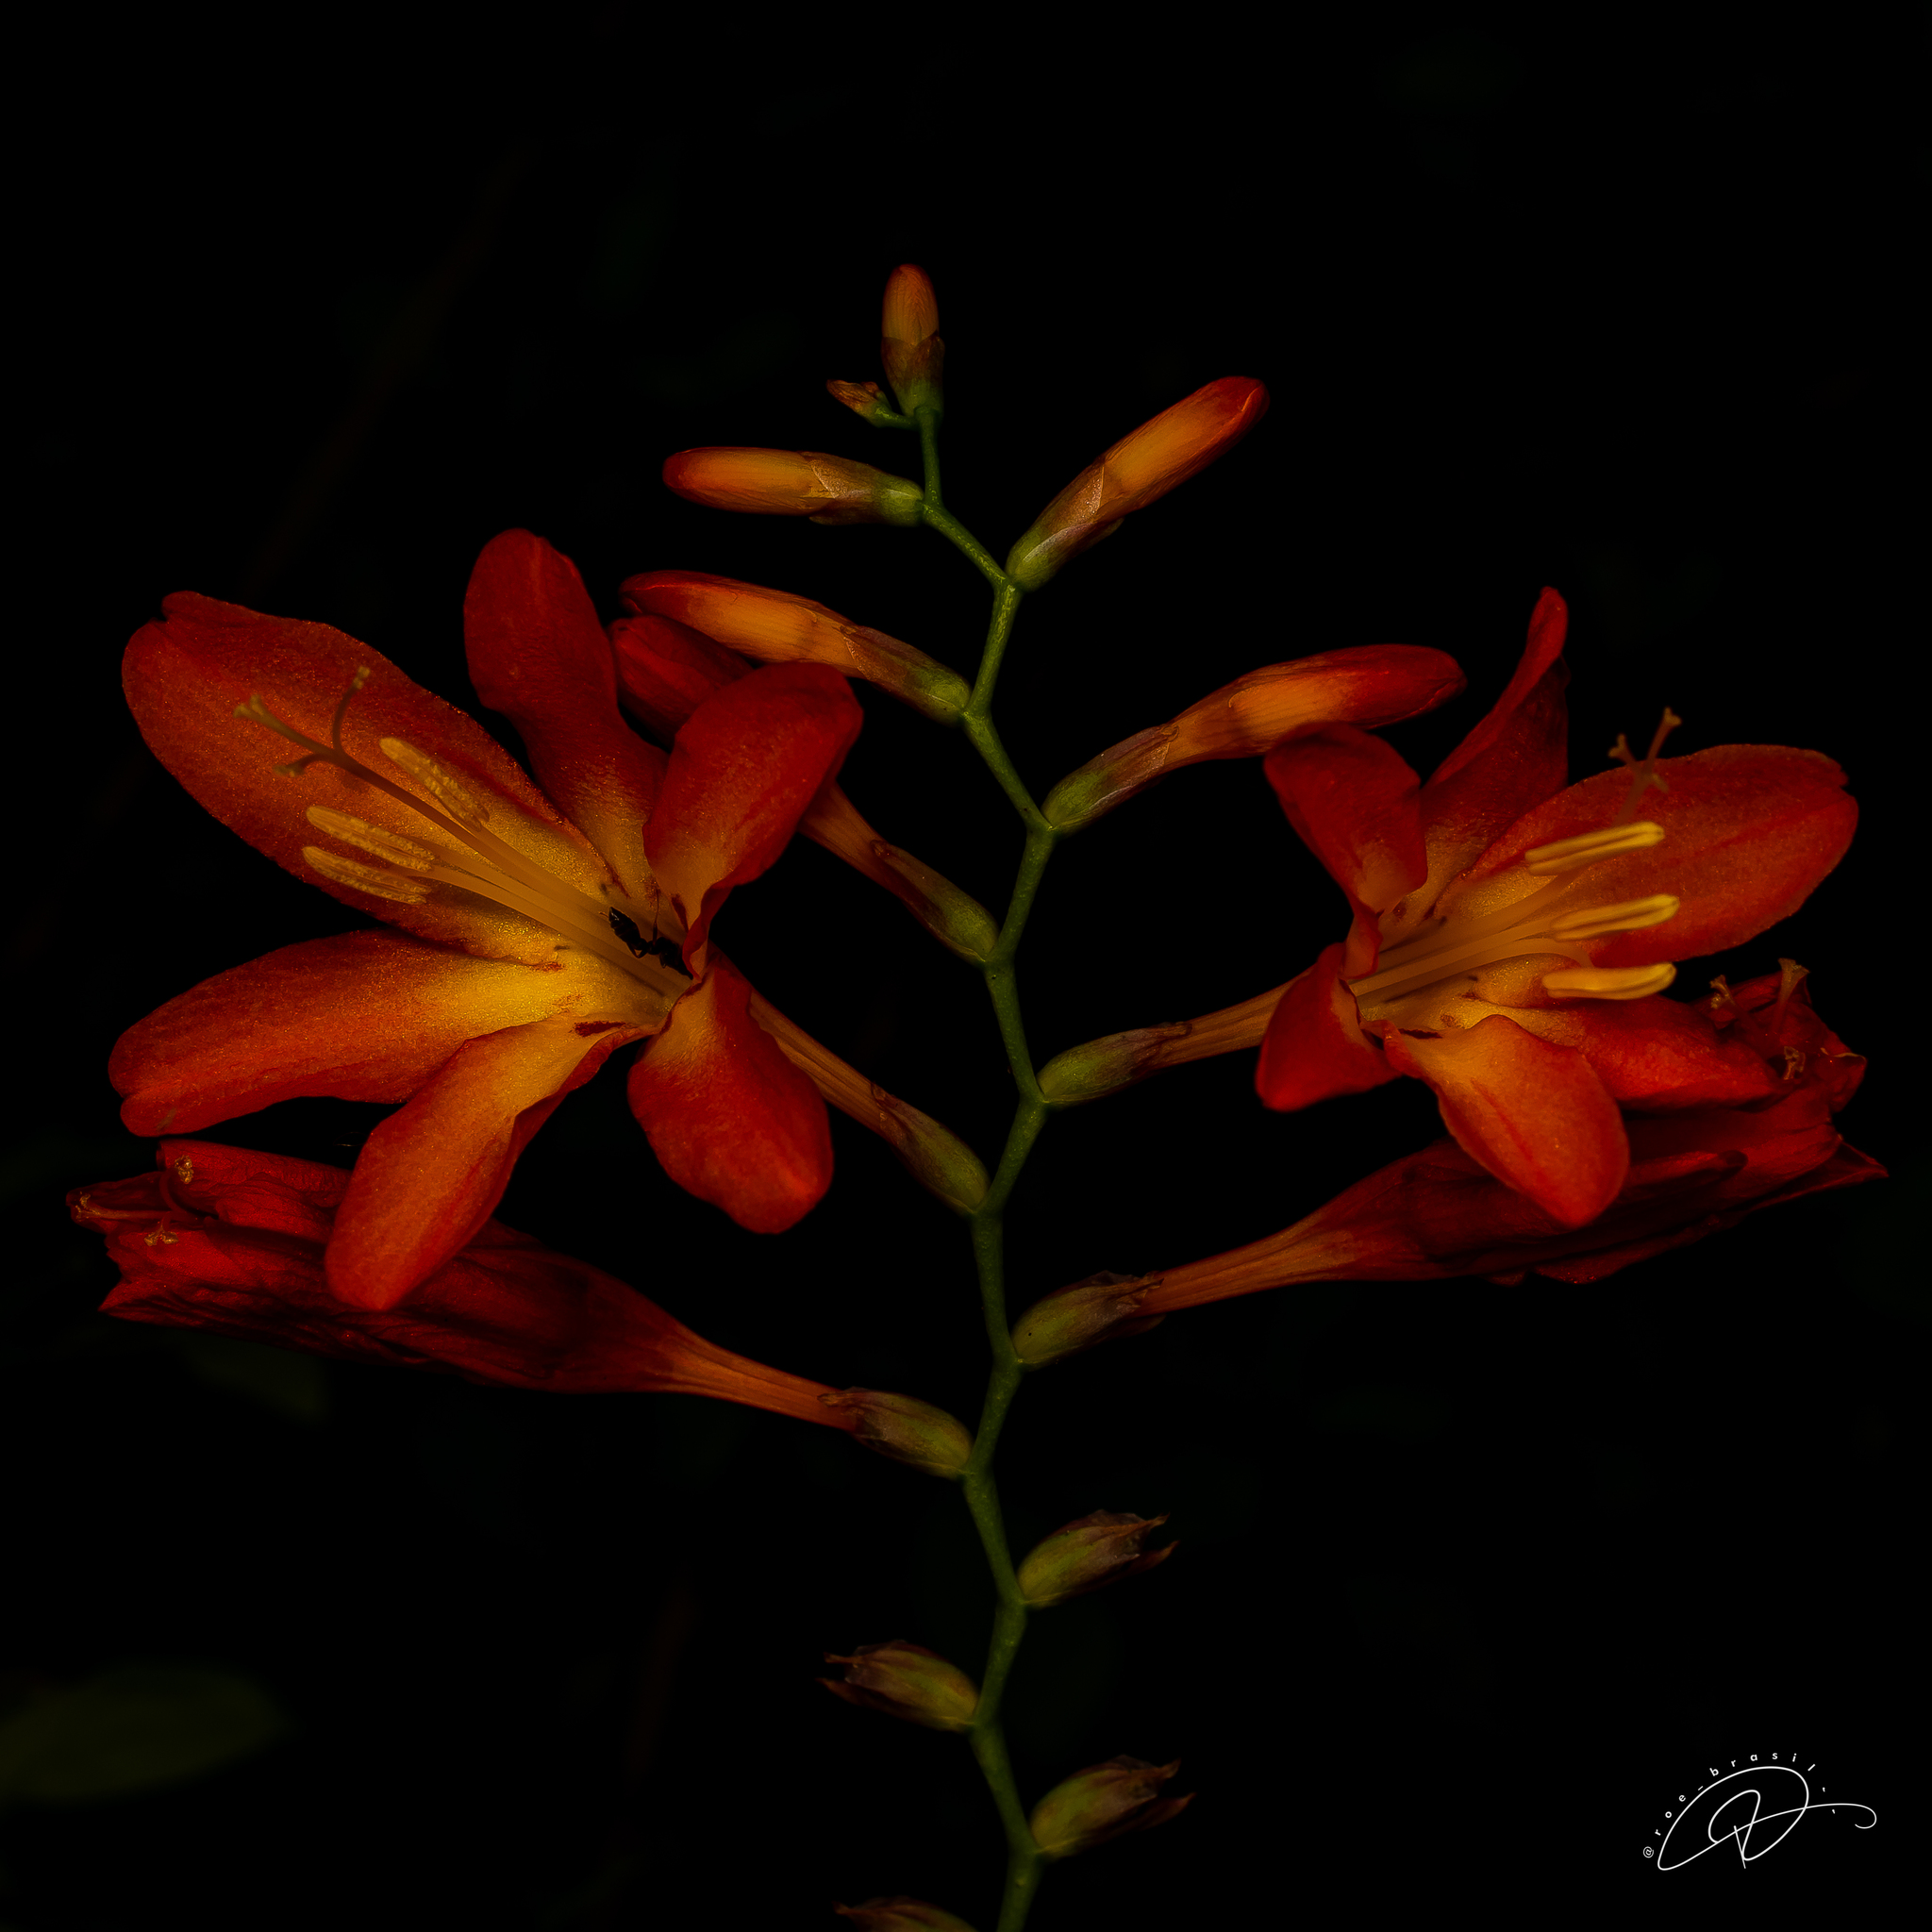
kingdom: Plantae
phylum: Tracheophyta
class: Liliopsida
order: Asparagales
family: Iridaceae
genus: Crocosmia
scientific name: Crocosmia crocosmiiflora
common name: Montbretia
